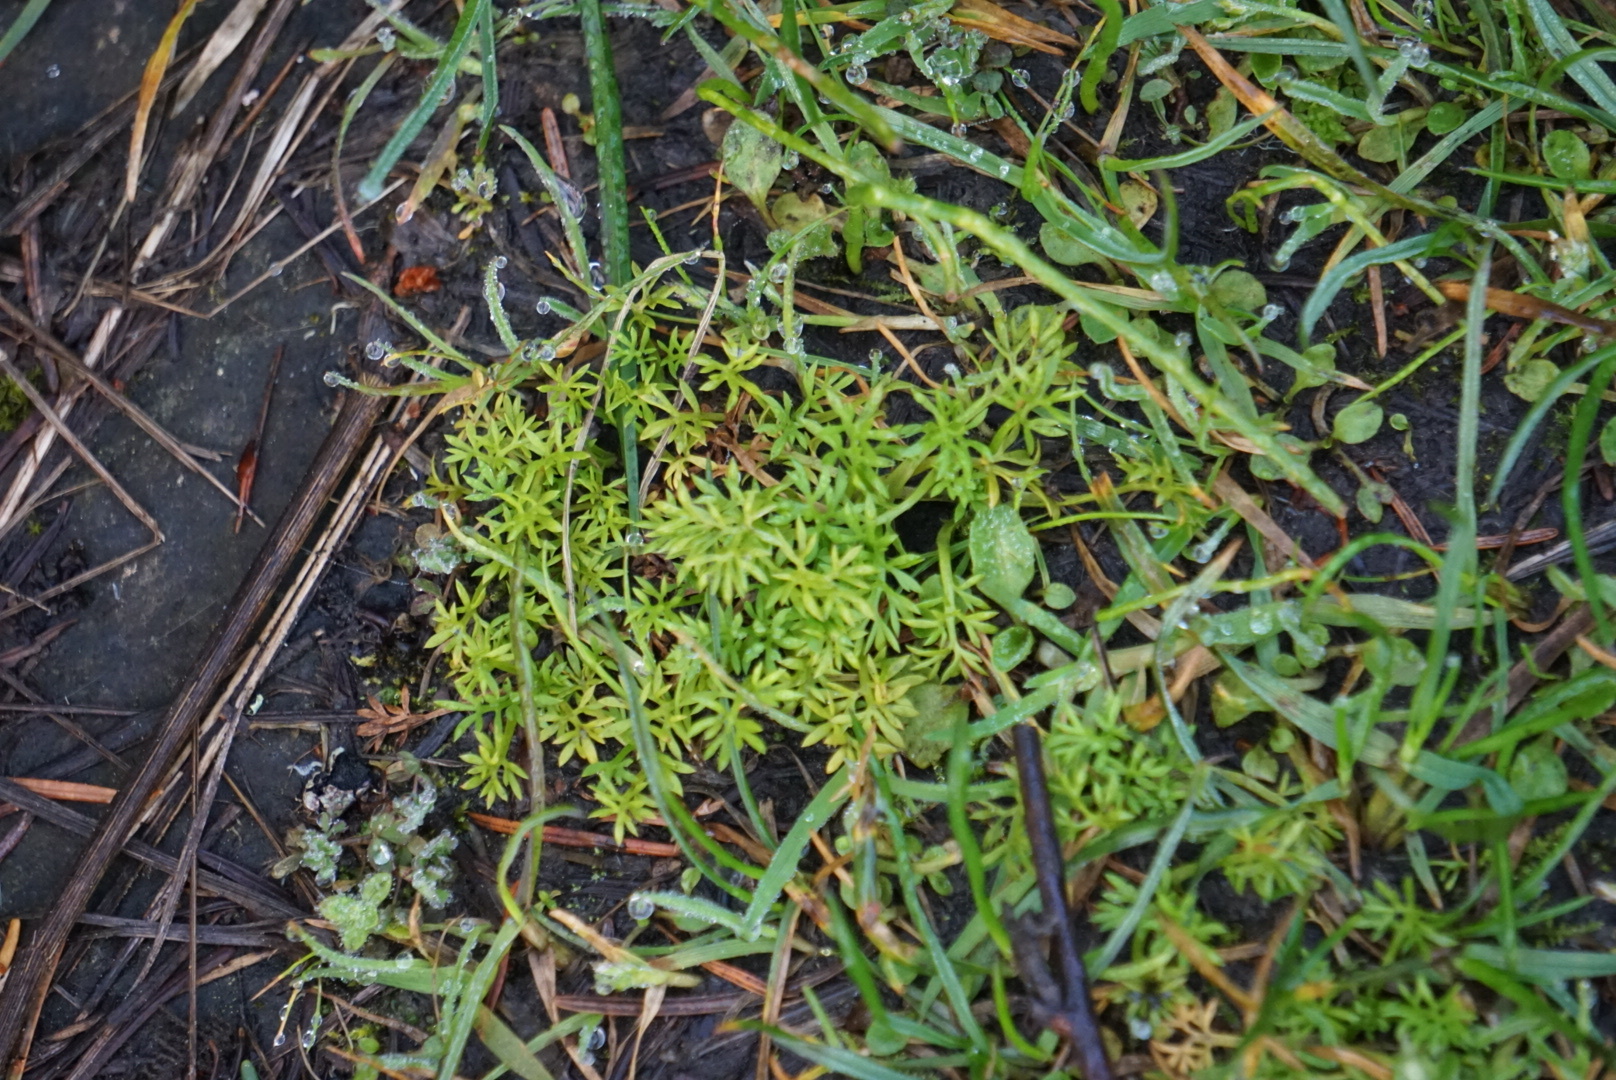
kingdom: Plantae
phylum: Tracheophyta
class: Magnoliopsida
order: Asterales
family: Asteraceae
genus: Soliva
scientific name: Soliva sessilis
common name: Field burrweed
